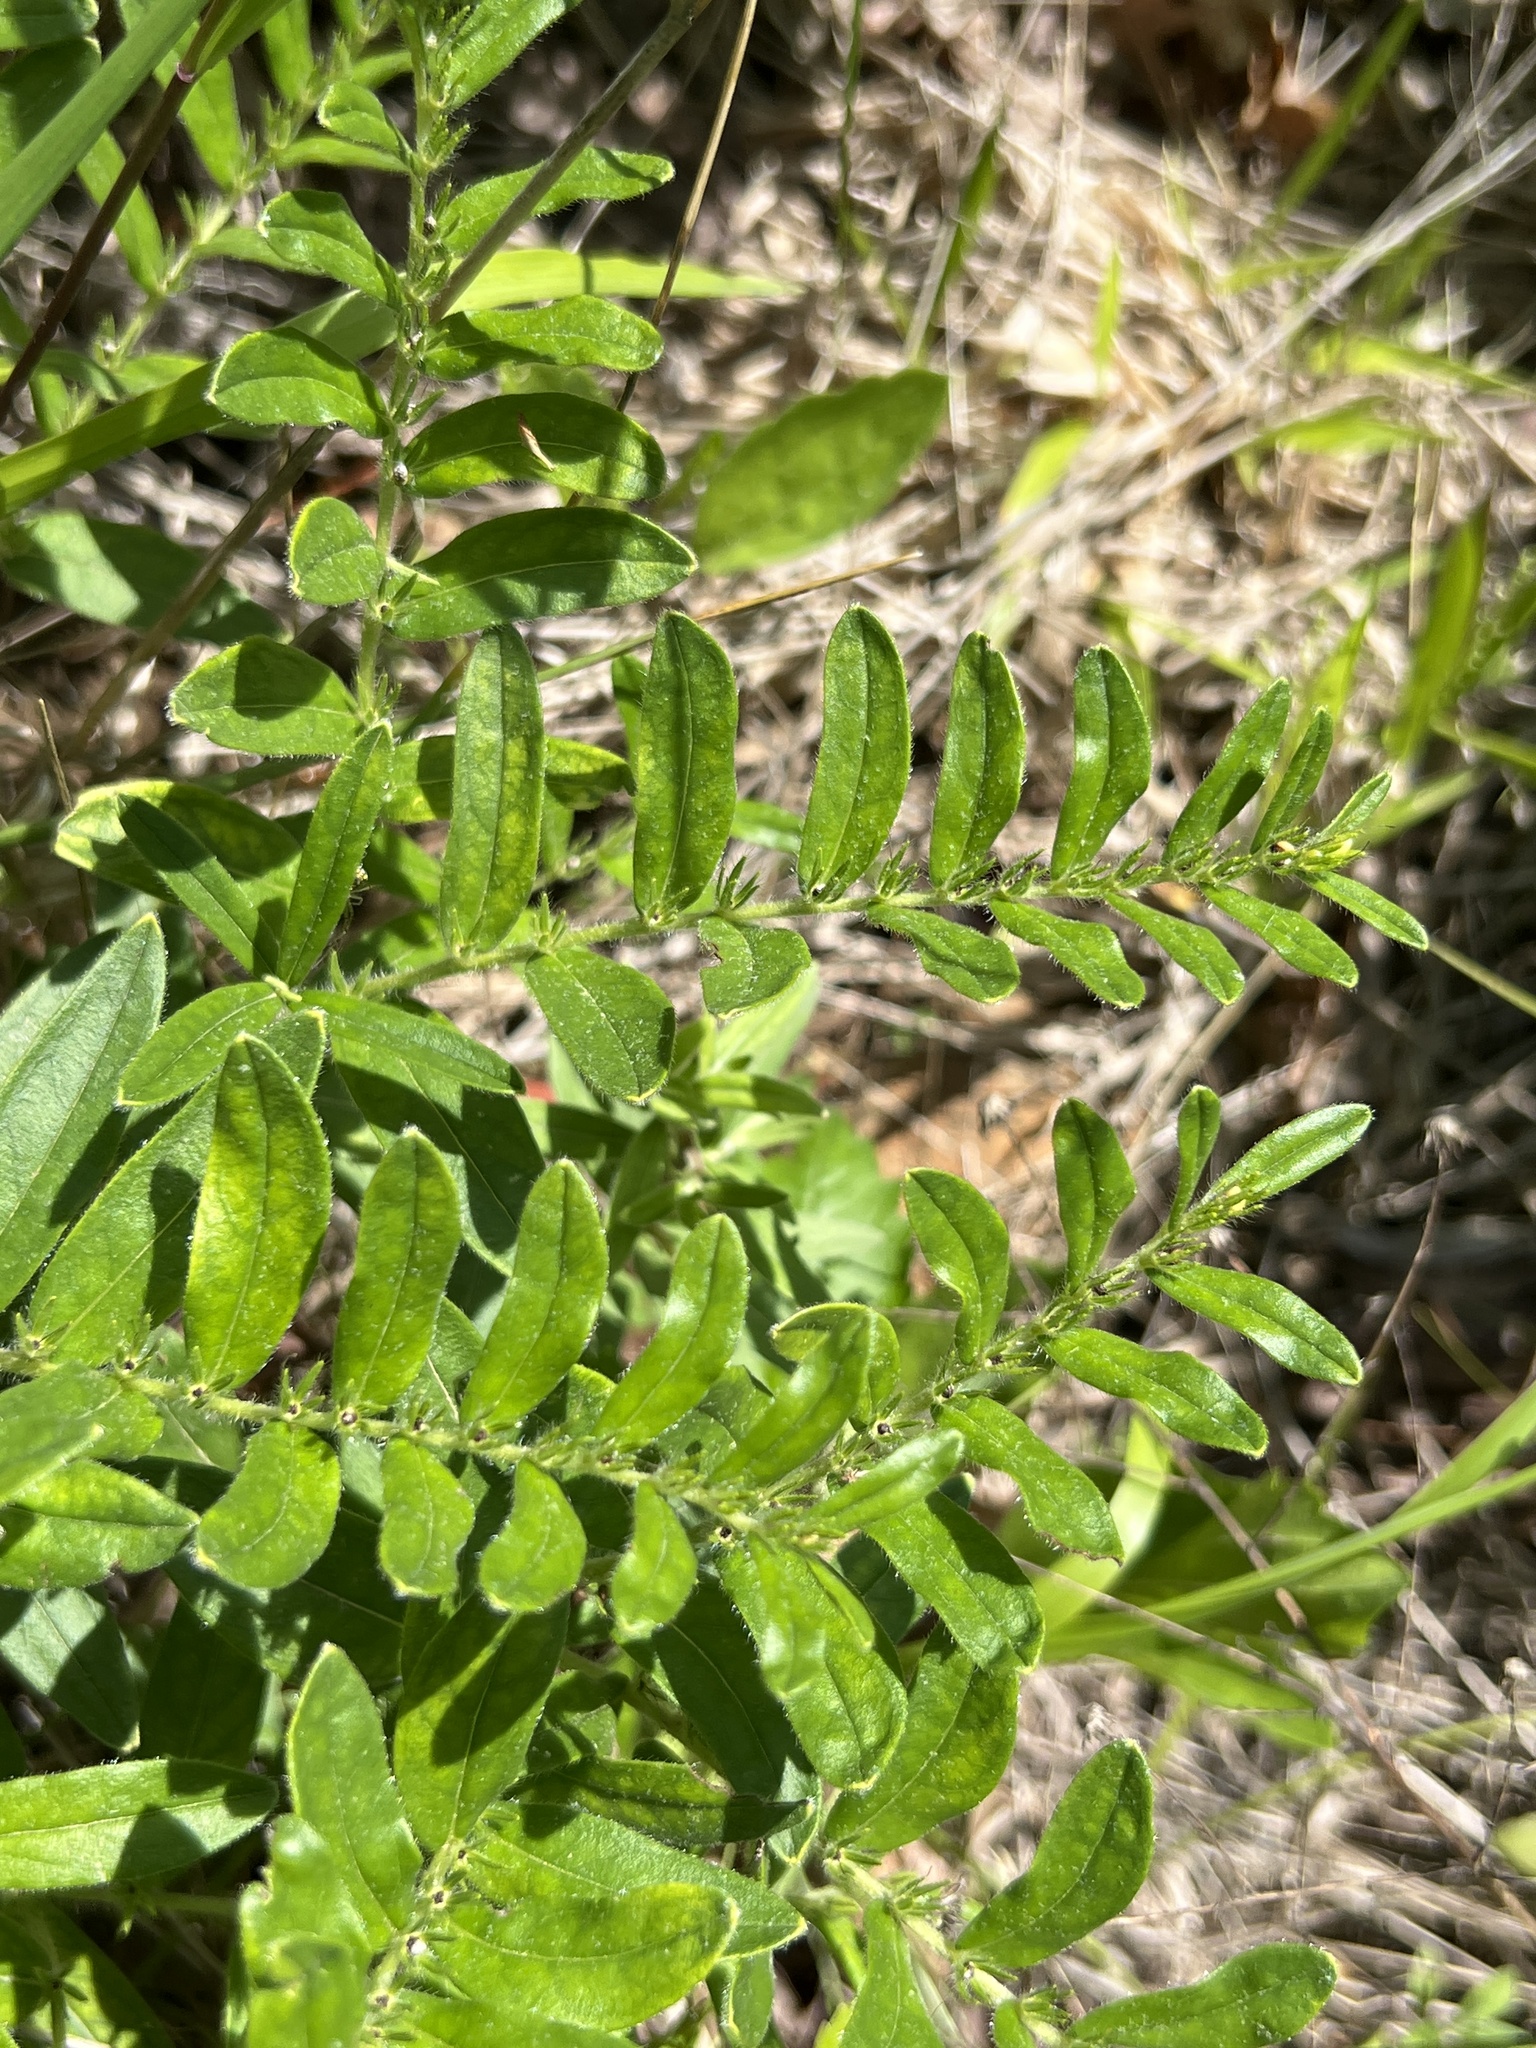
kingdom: Plantae
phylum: Tracheophyta
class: Magnoliopsida
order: Boraginales
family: Boraginaceae
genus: Lithospermum
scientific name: Lithospermum canescens
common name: Hoary puccoon
